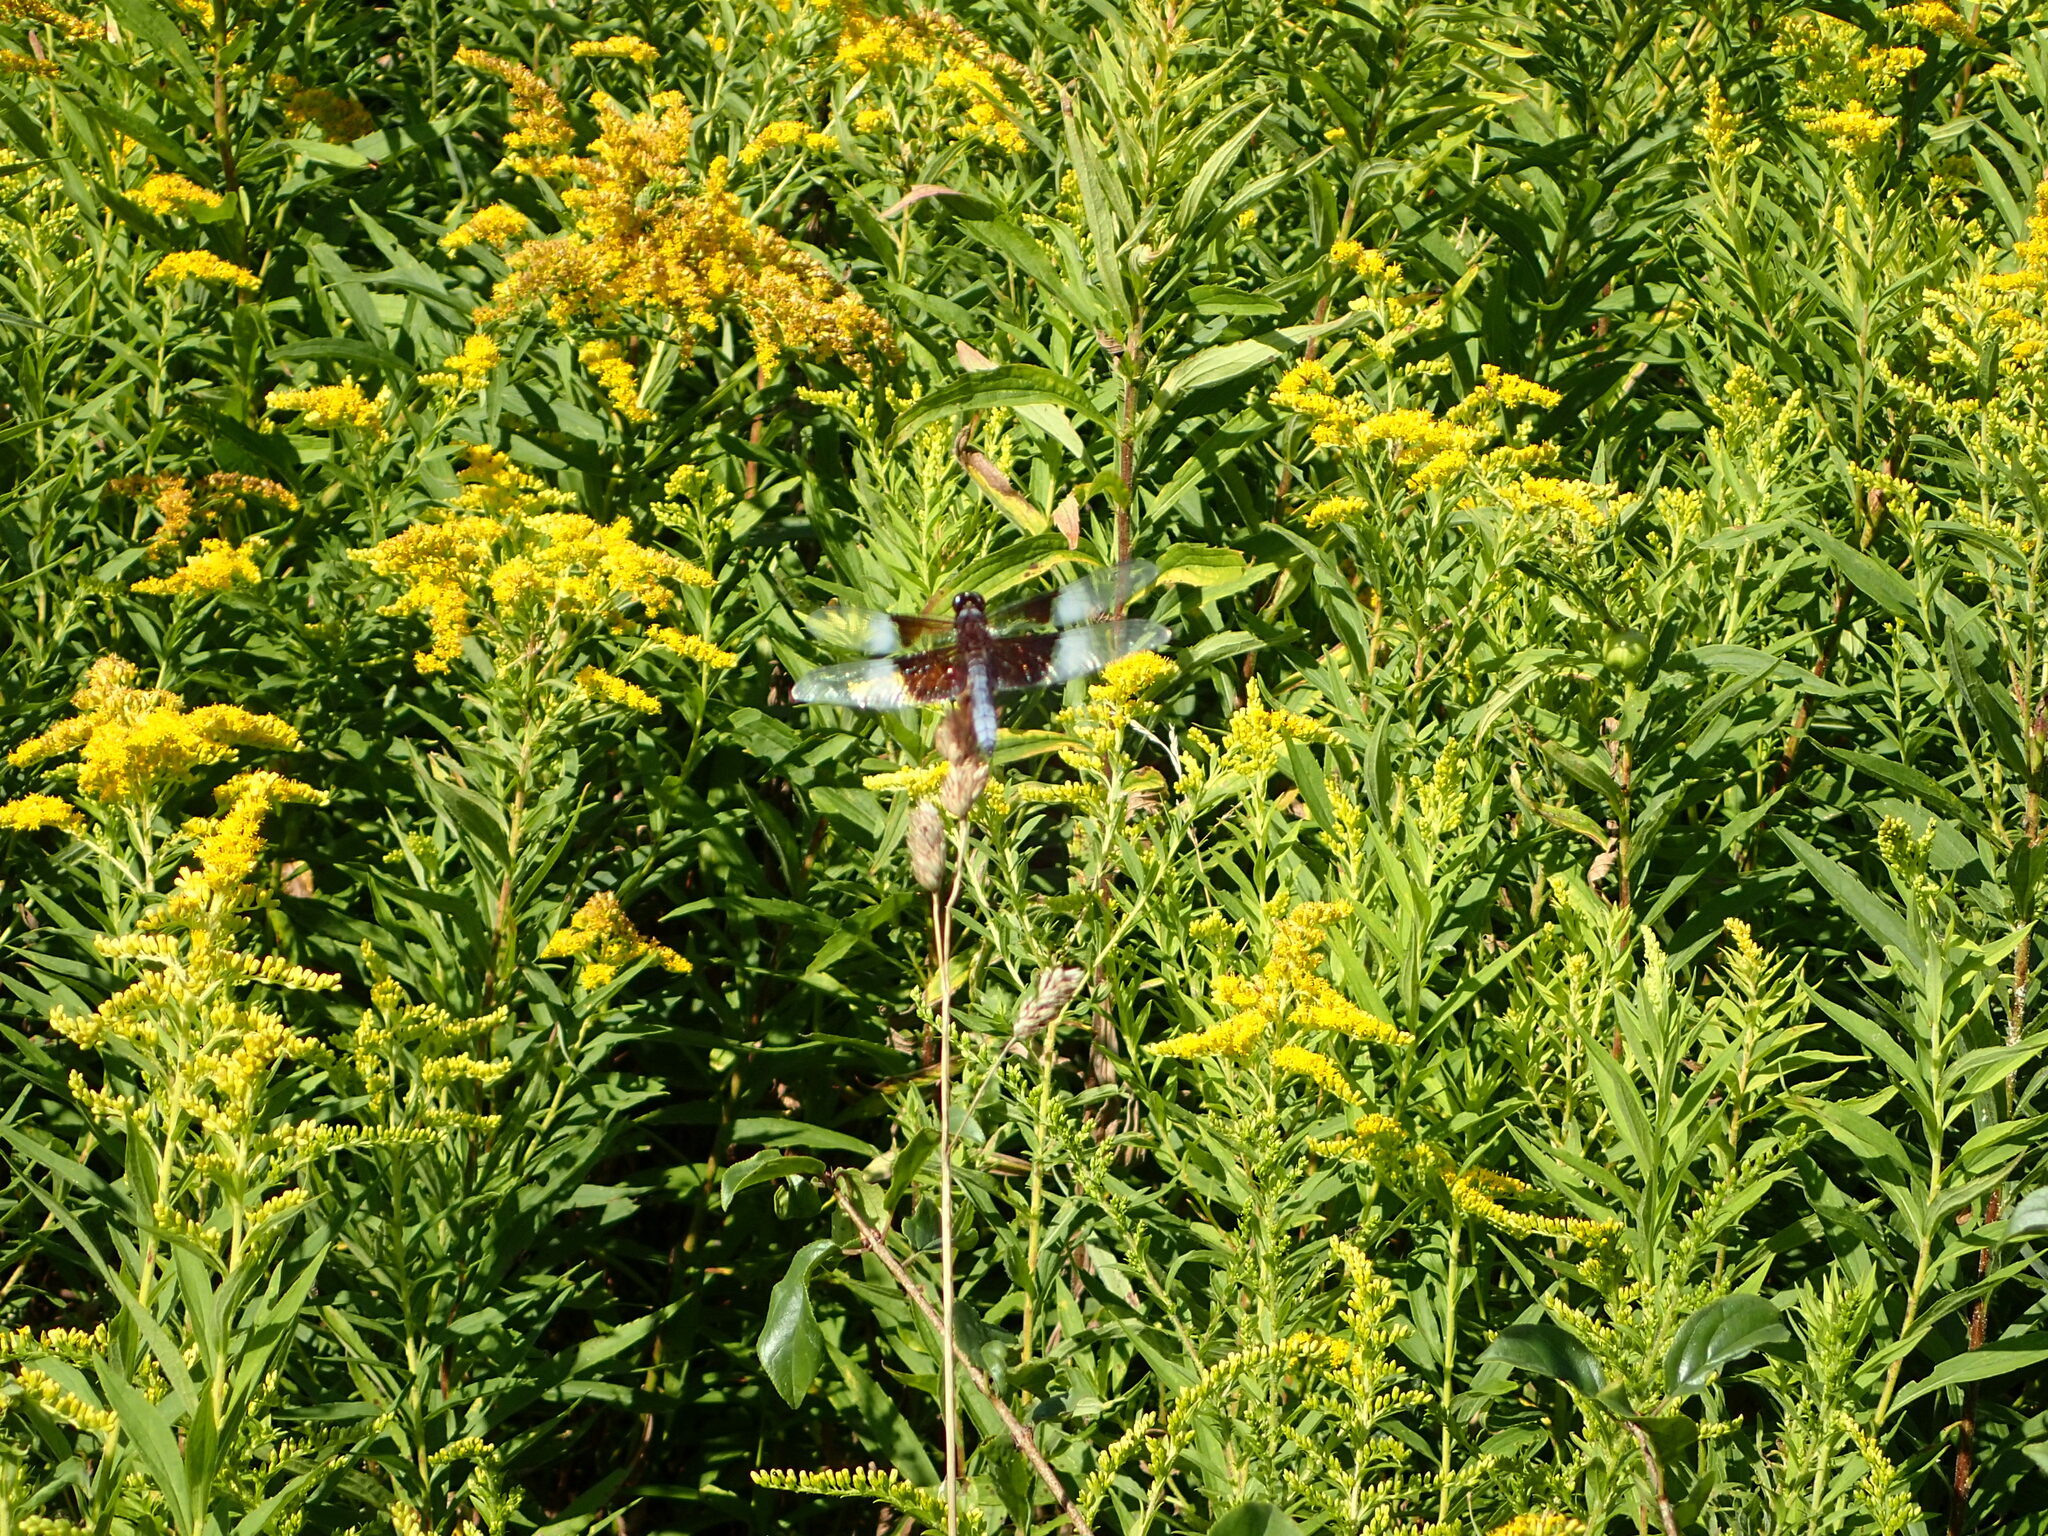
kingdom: Animalia
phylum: Arthropoda
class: Insecta
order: Odonata
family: Libellulidae
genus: Libellula
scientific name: Libellula luctuosa
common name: Widow skimmer
